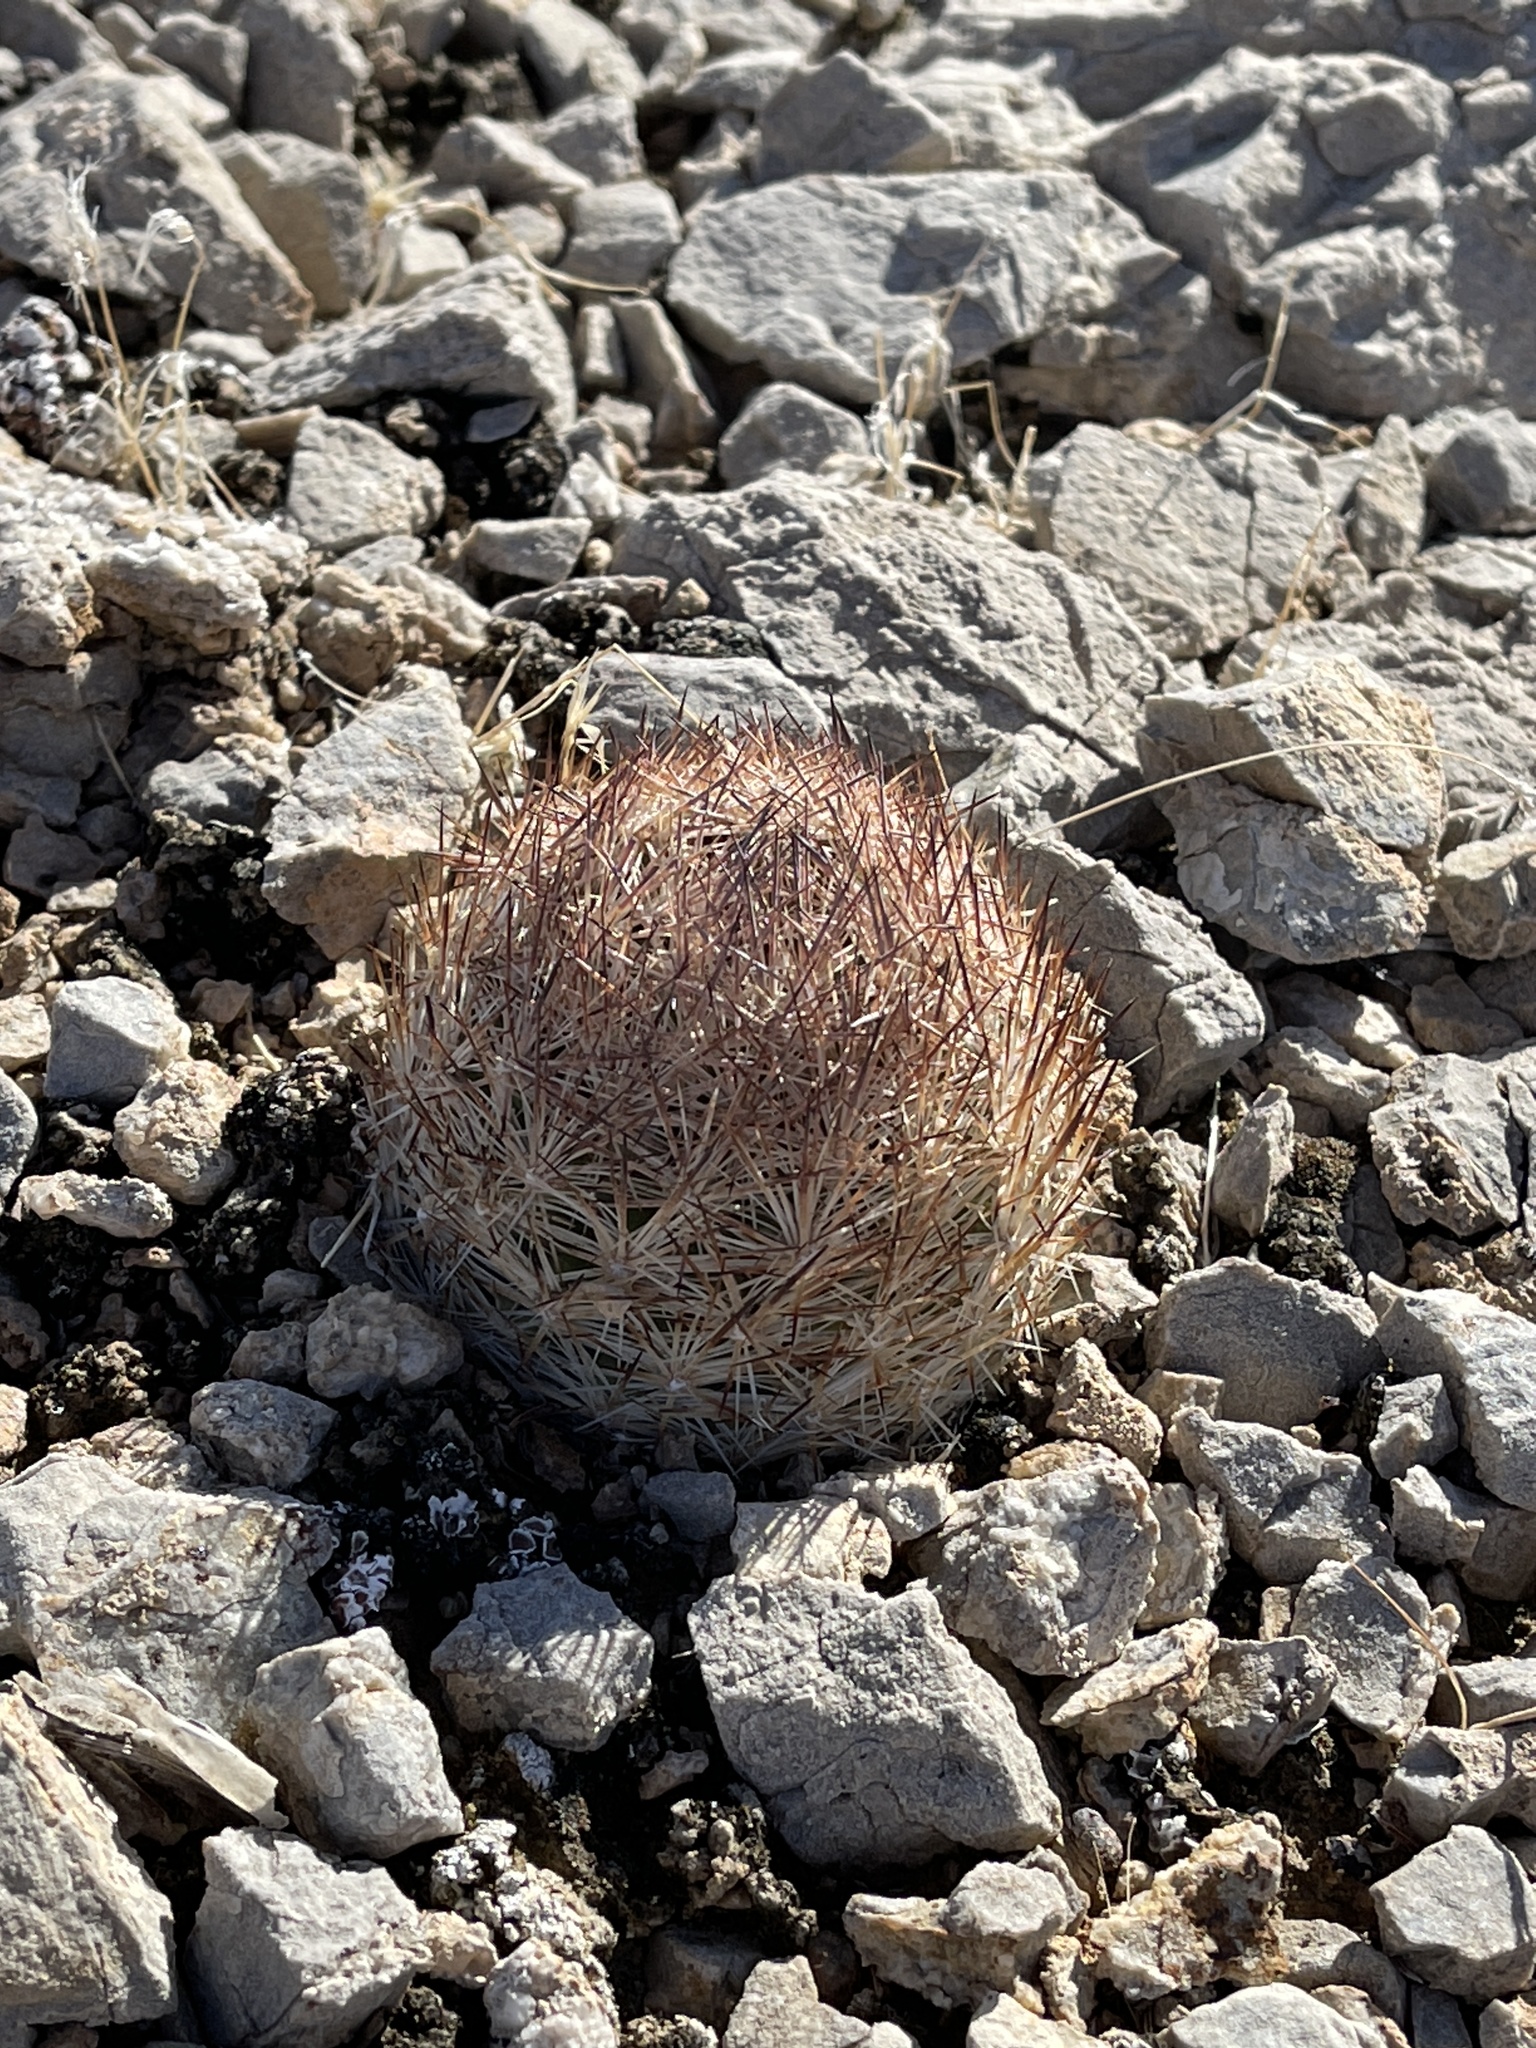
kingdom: Plantae
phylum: Tracheophyta
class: Magnoliopsida
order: Caryophyllales
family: Cactaceae
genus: Pelecyphora
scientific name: Pelecyphora dasyacantha
